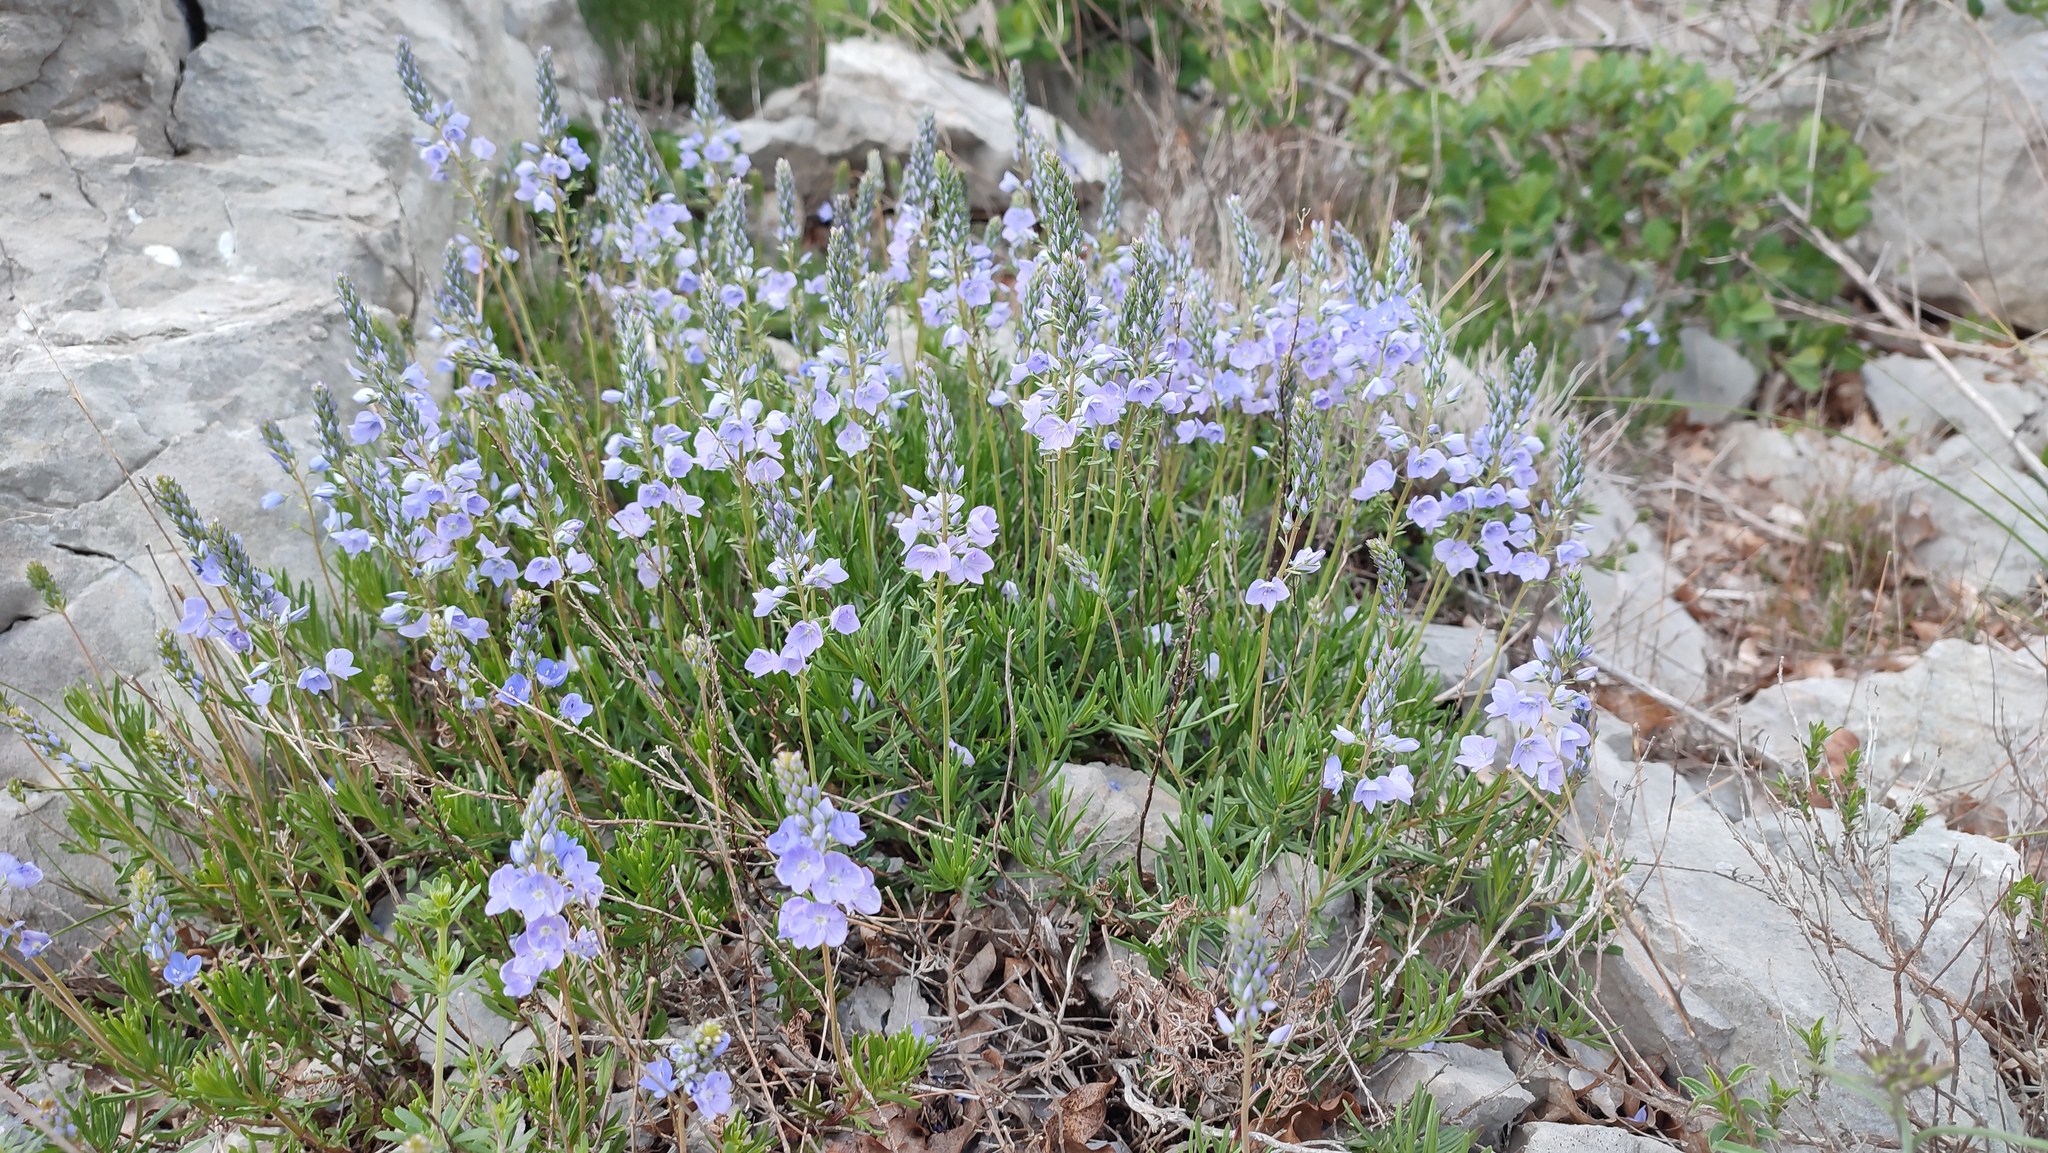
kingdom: Plantae
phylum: Tracheophyta
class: Magnoliopsida
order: Lamiales
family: Plantaginaceae
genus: Veronica
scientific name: Veronica orbiculata
